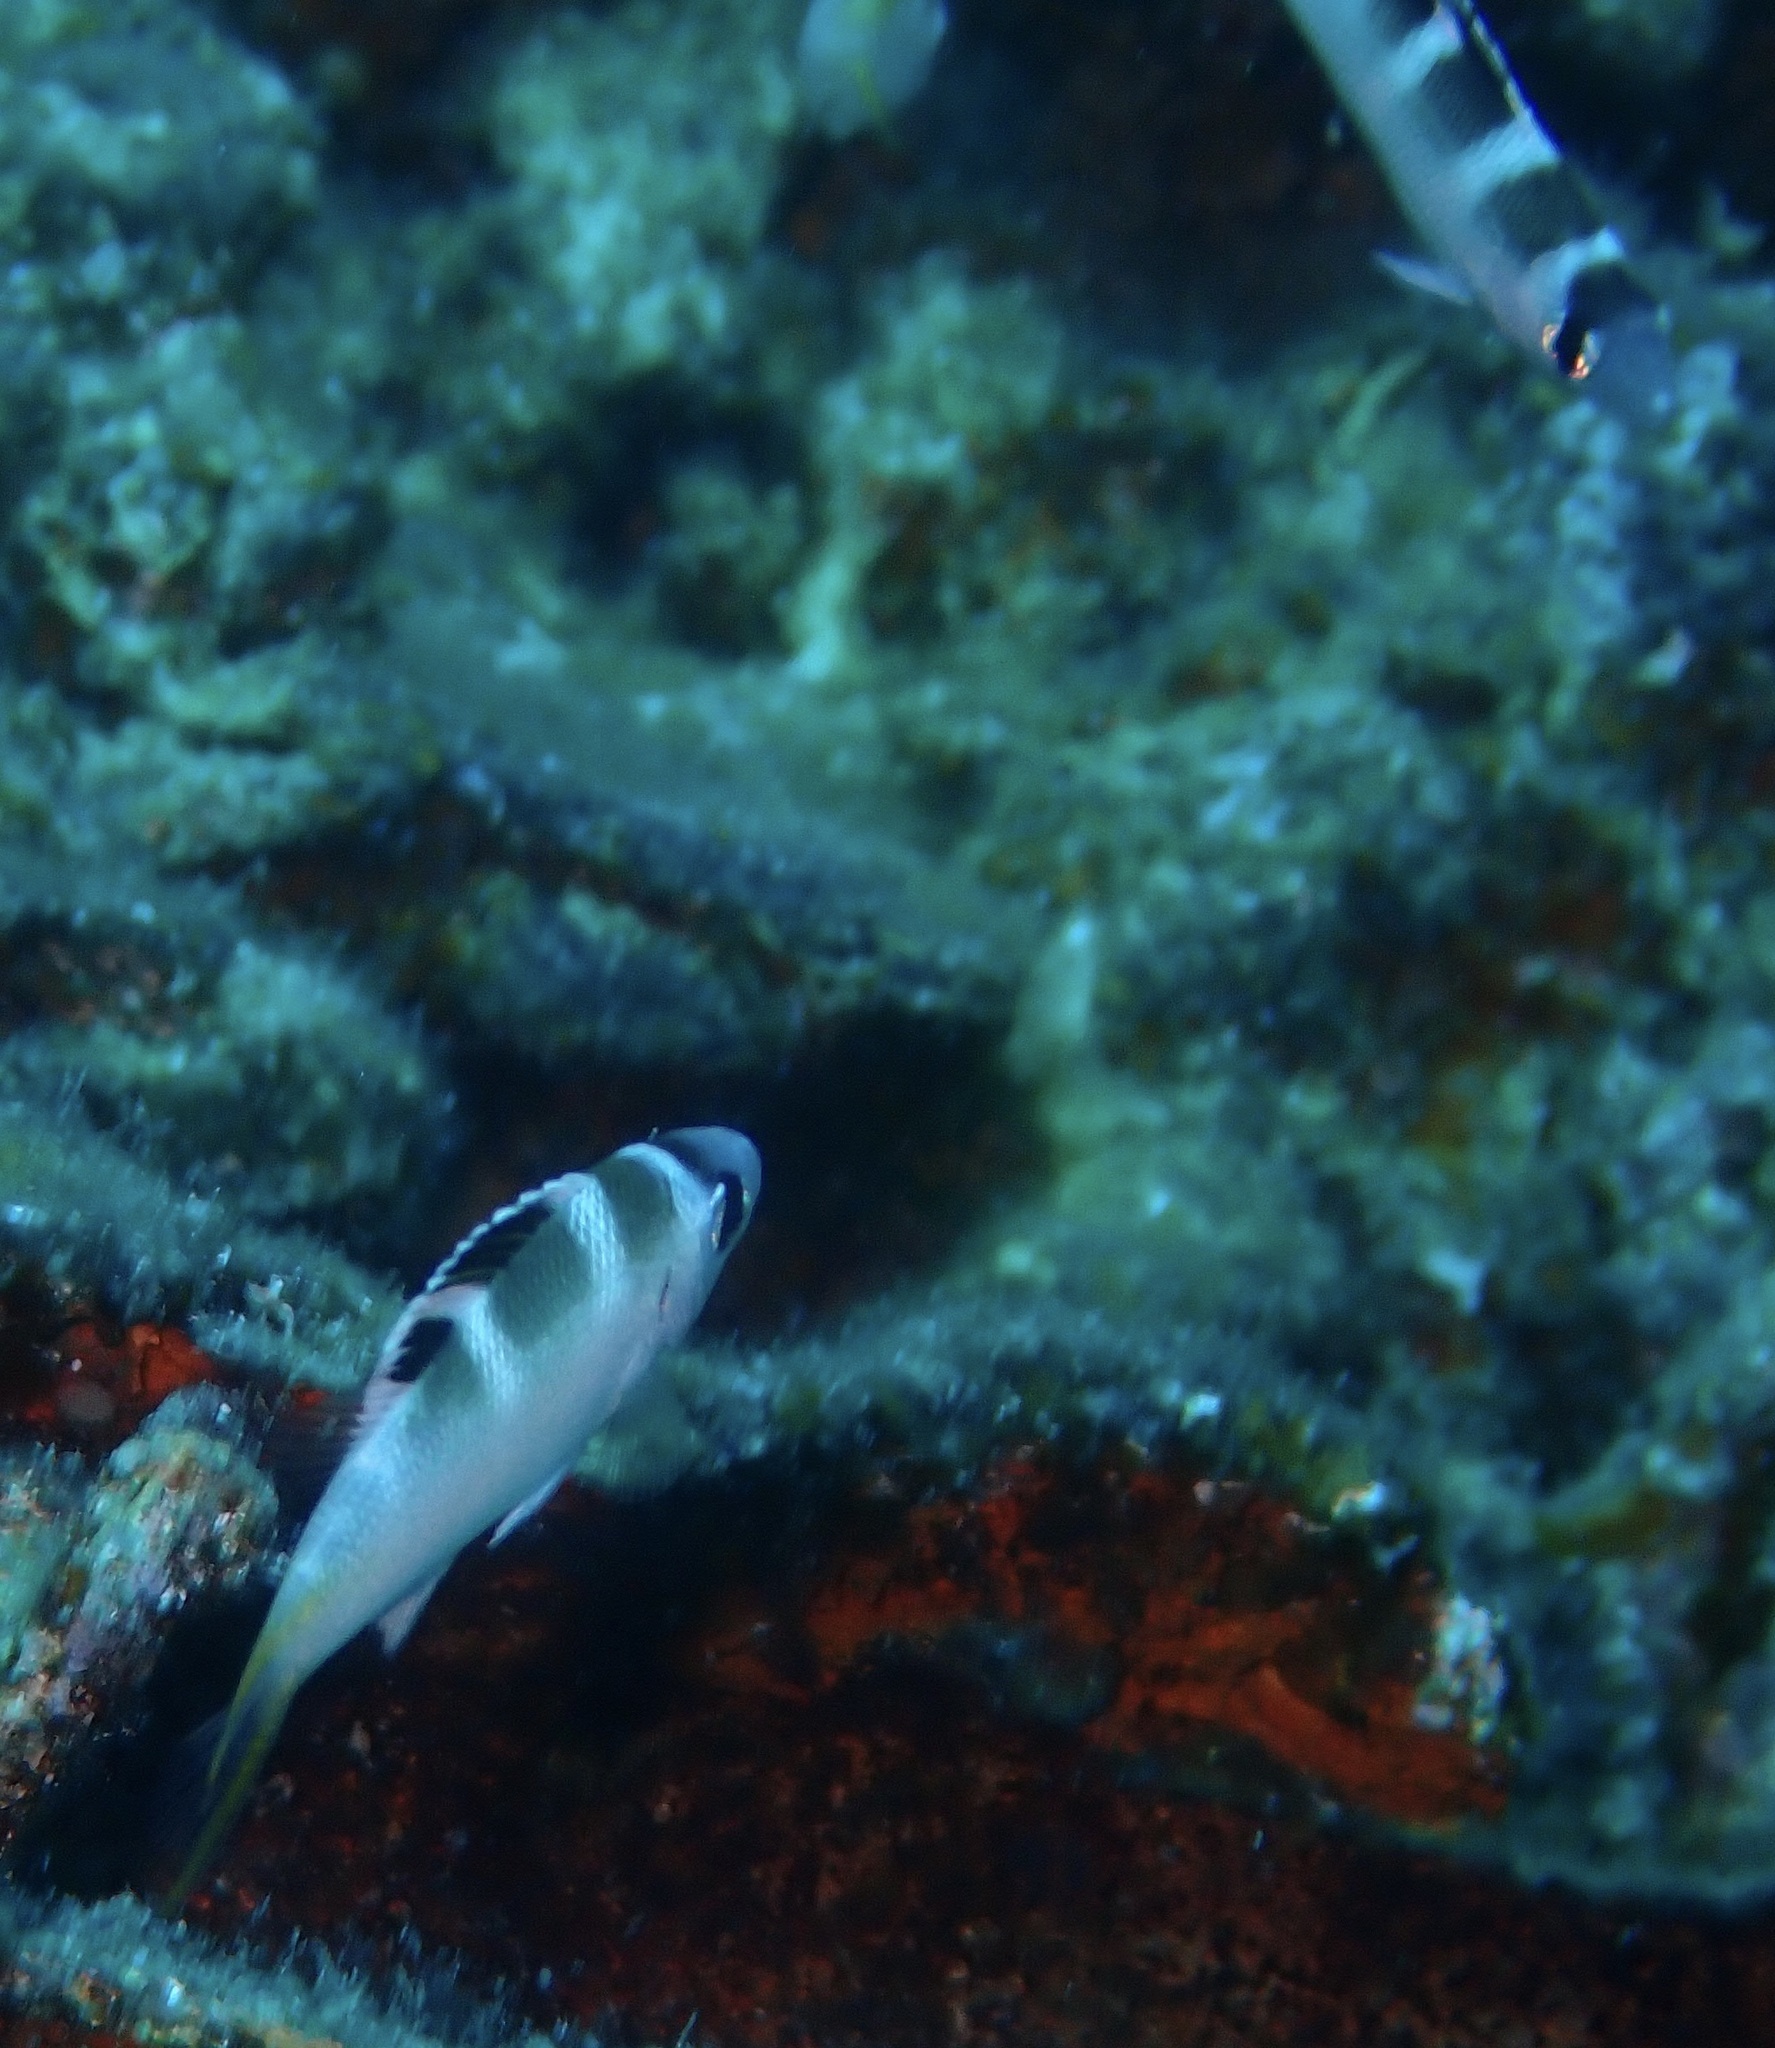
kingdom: Animalia
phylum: Chordata
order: Perciformes
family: Lethrinidae
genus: Monotaxis
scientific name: Monotaxis grandoculis
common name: Bigeye emperor
